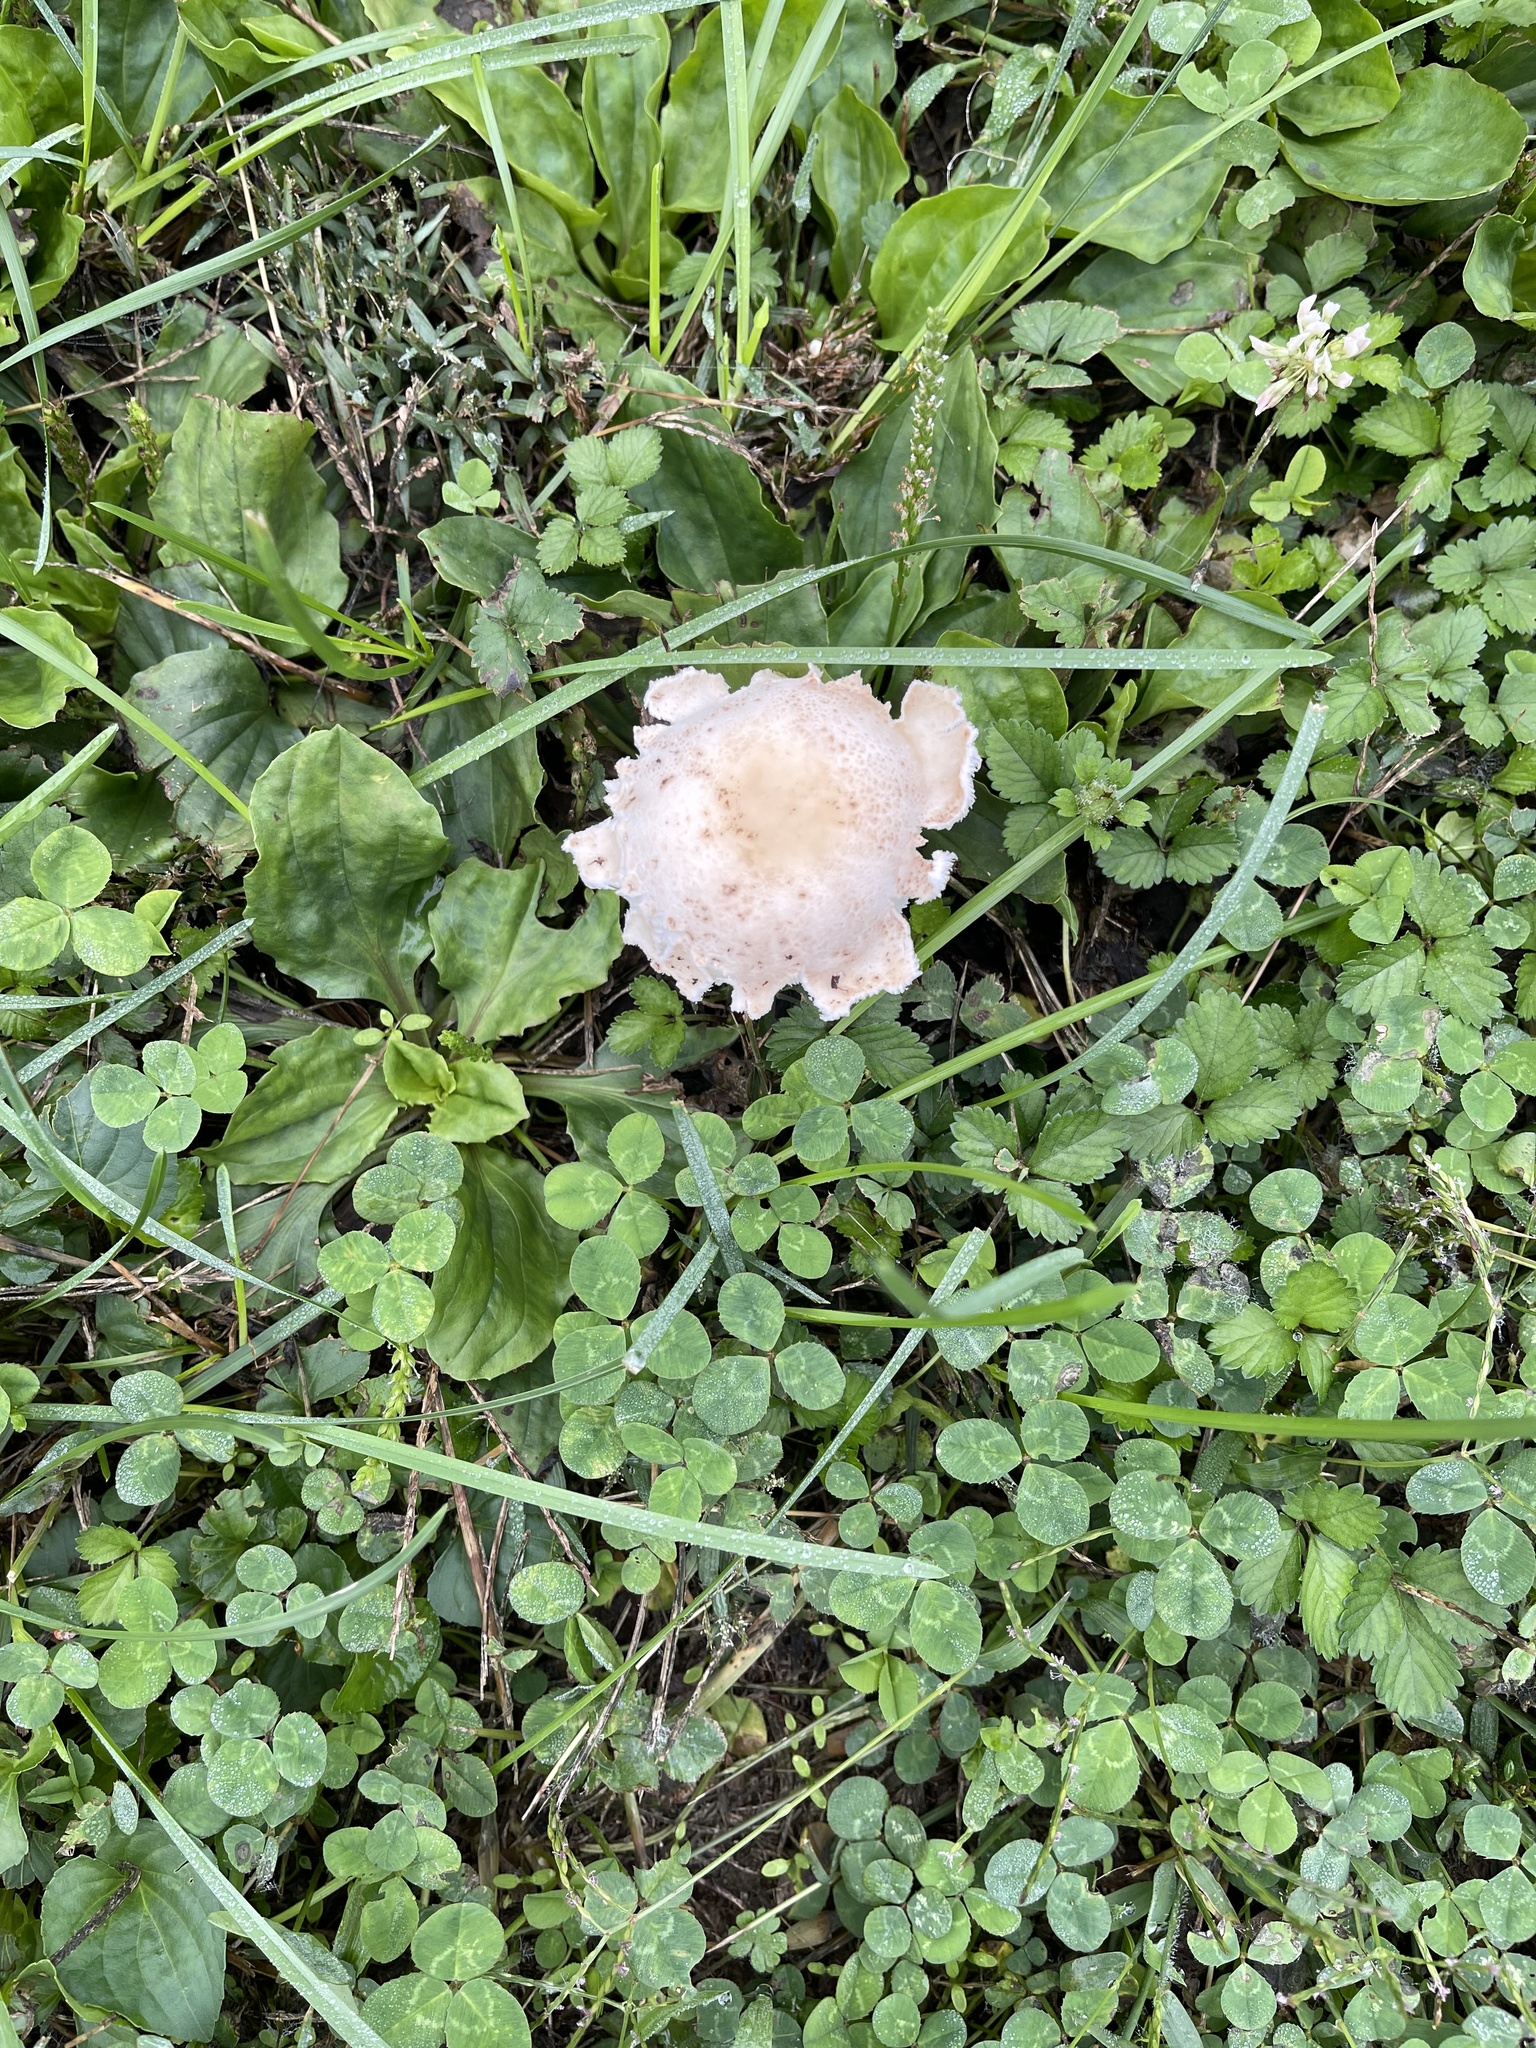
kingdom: Fungi
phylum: Basidiomycota
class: Agaricomycetes
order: Agaricales
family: Agaricaceae
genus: Coprinus
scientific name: Coprinus comatus
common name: Lawyer's wig
